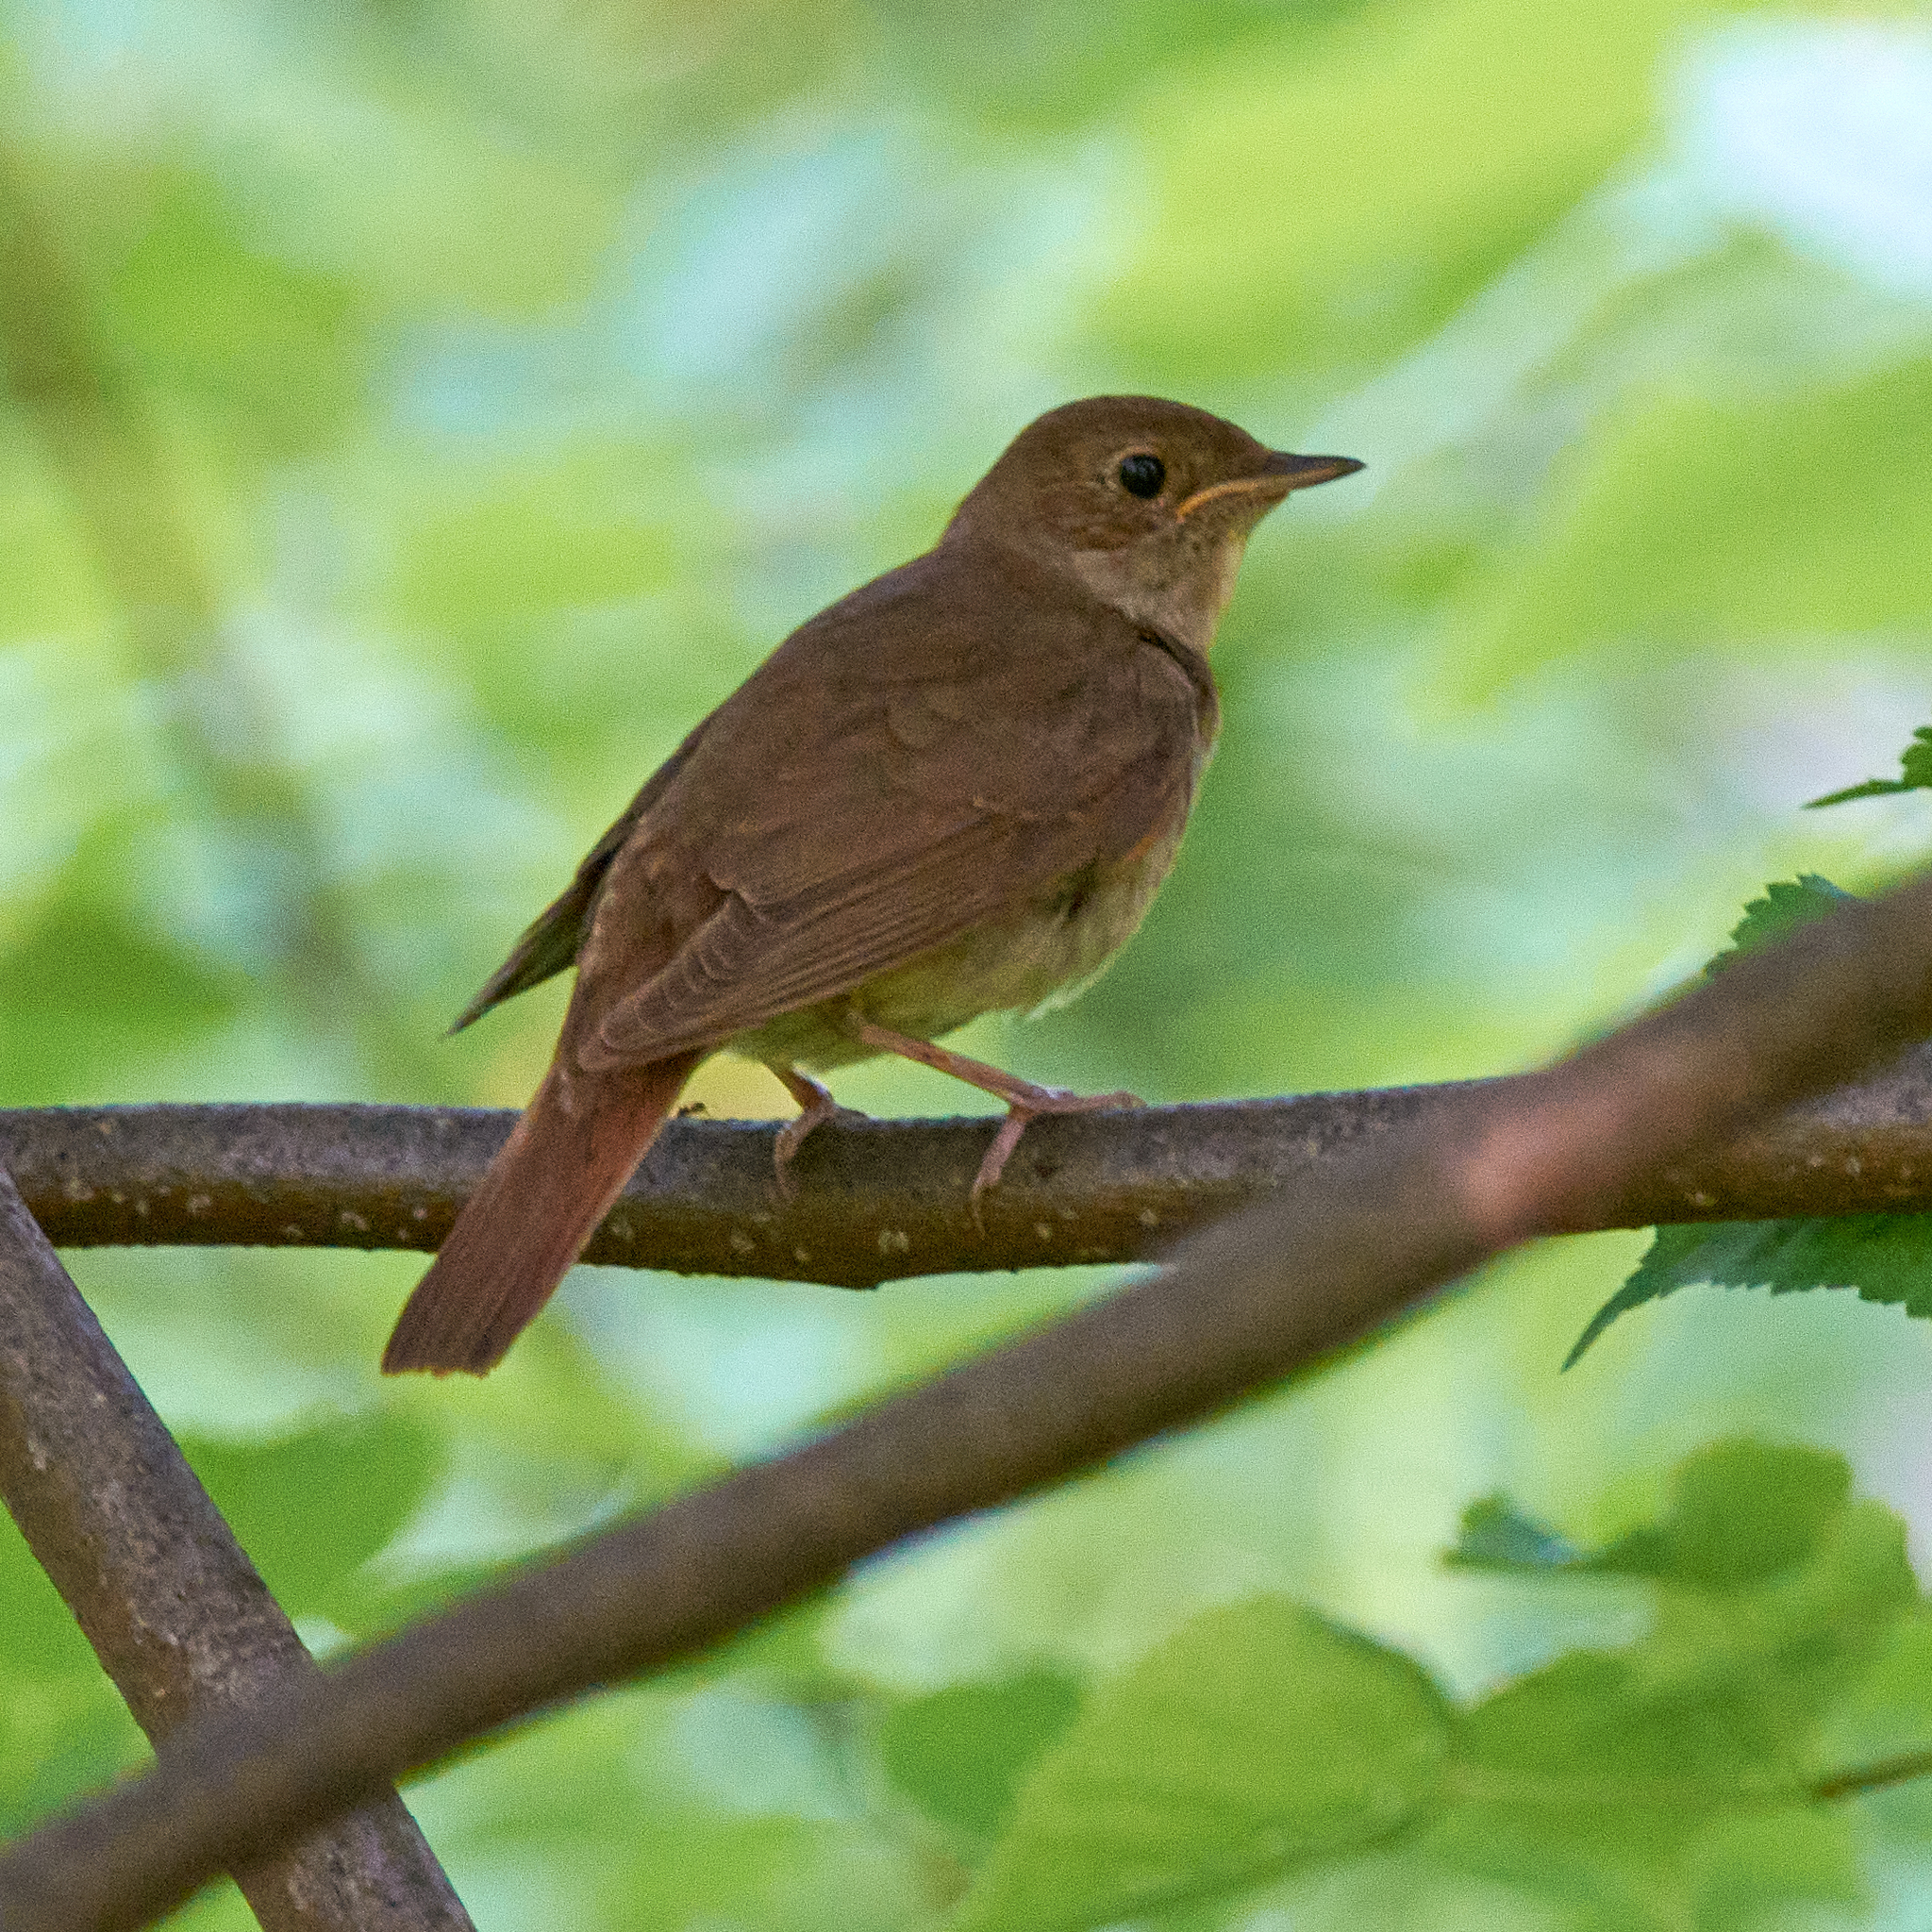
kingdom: Animalia
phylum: Chordata
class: Aves
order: Passeriformes
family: Muscicapidae
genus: Luscinia
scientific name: Luscinia luscinia
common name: Thrush nightingale
